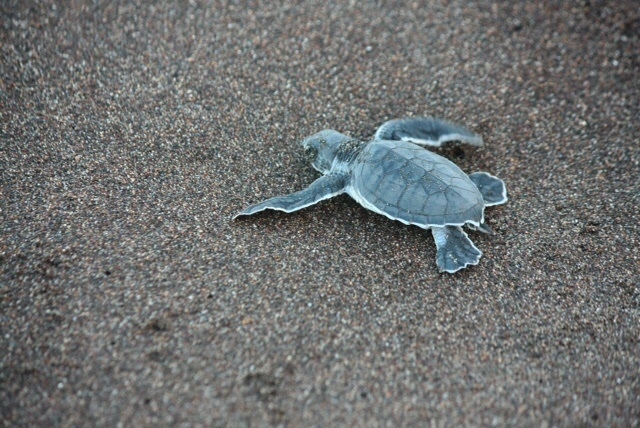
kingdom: Animalia
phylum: Chordata
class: Testudines
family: Cheloniidae
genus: Chelonia
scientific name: Chelonia mydas
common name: Green turtle
